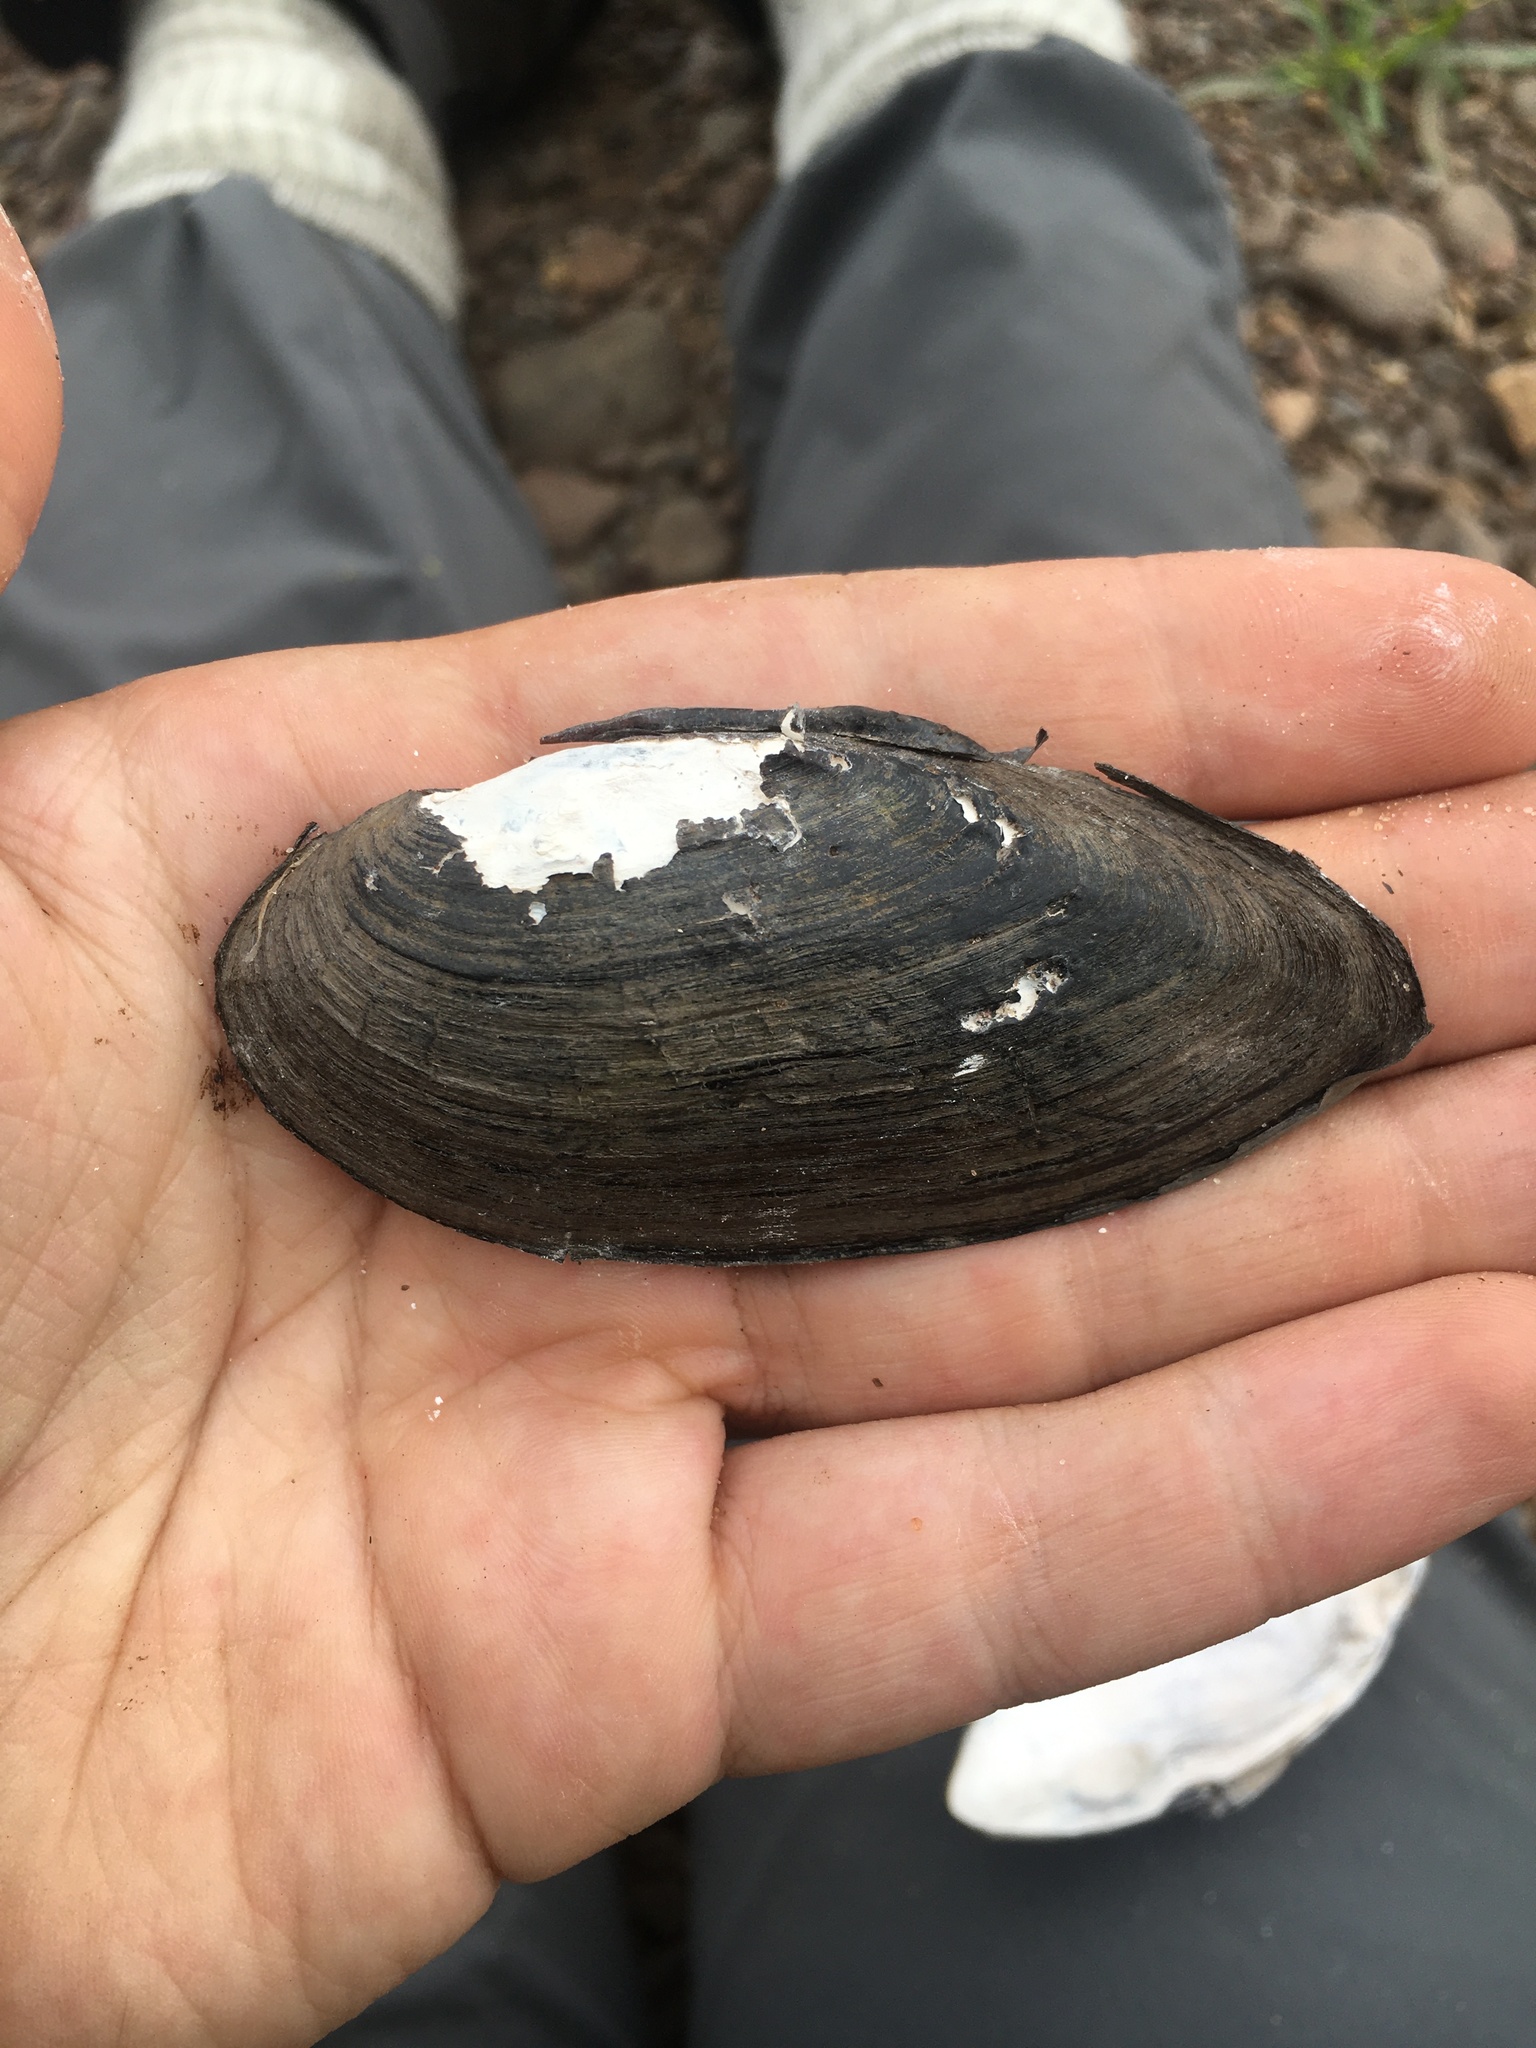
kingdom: Animalia
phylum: Mollusca
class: Bivalvia
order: Unionida
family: Unionidae
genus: Eurynia
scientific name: Eurynia dilatata
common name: Spike
